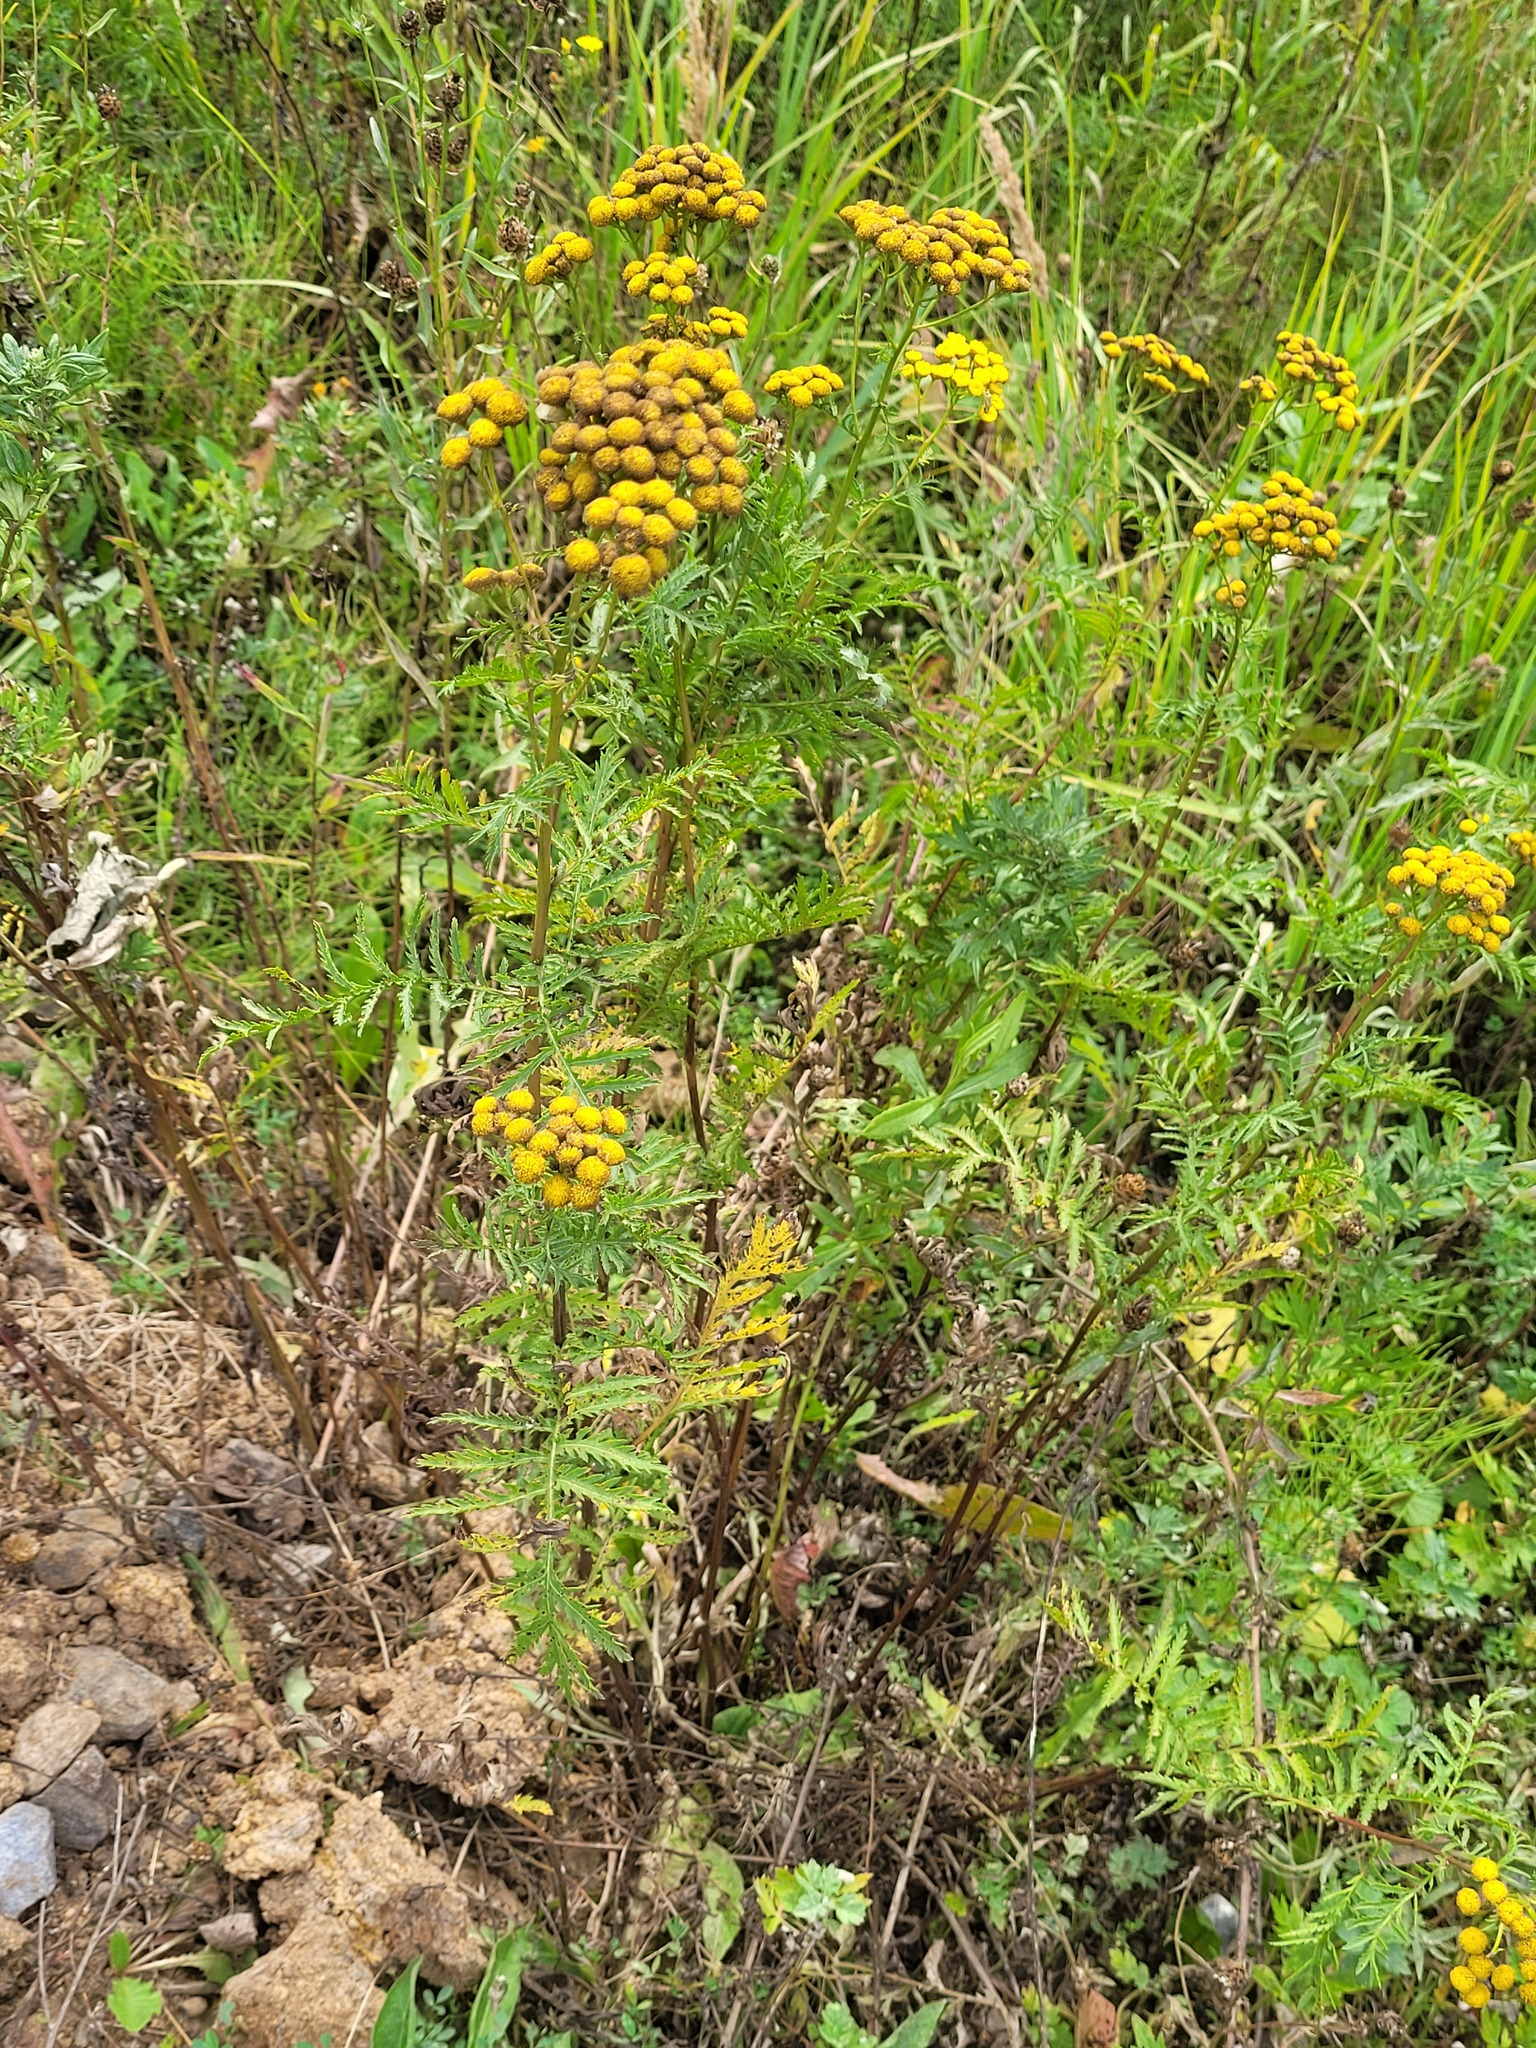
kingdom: Plantae
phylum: Tracheophyta
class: Magnoliopsida
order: Asterales
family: Asteraceae
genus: Tanacetum
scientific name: Tanacetum vulgare
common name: Common tansy
